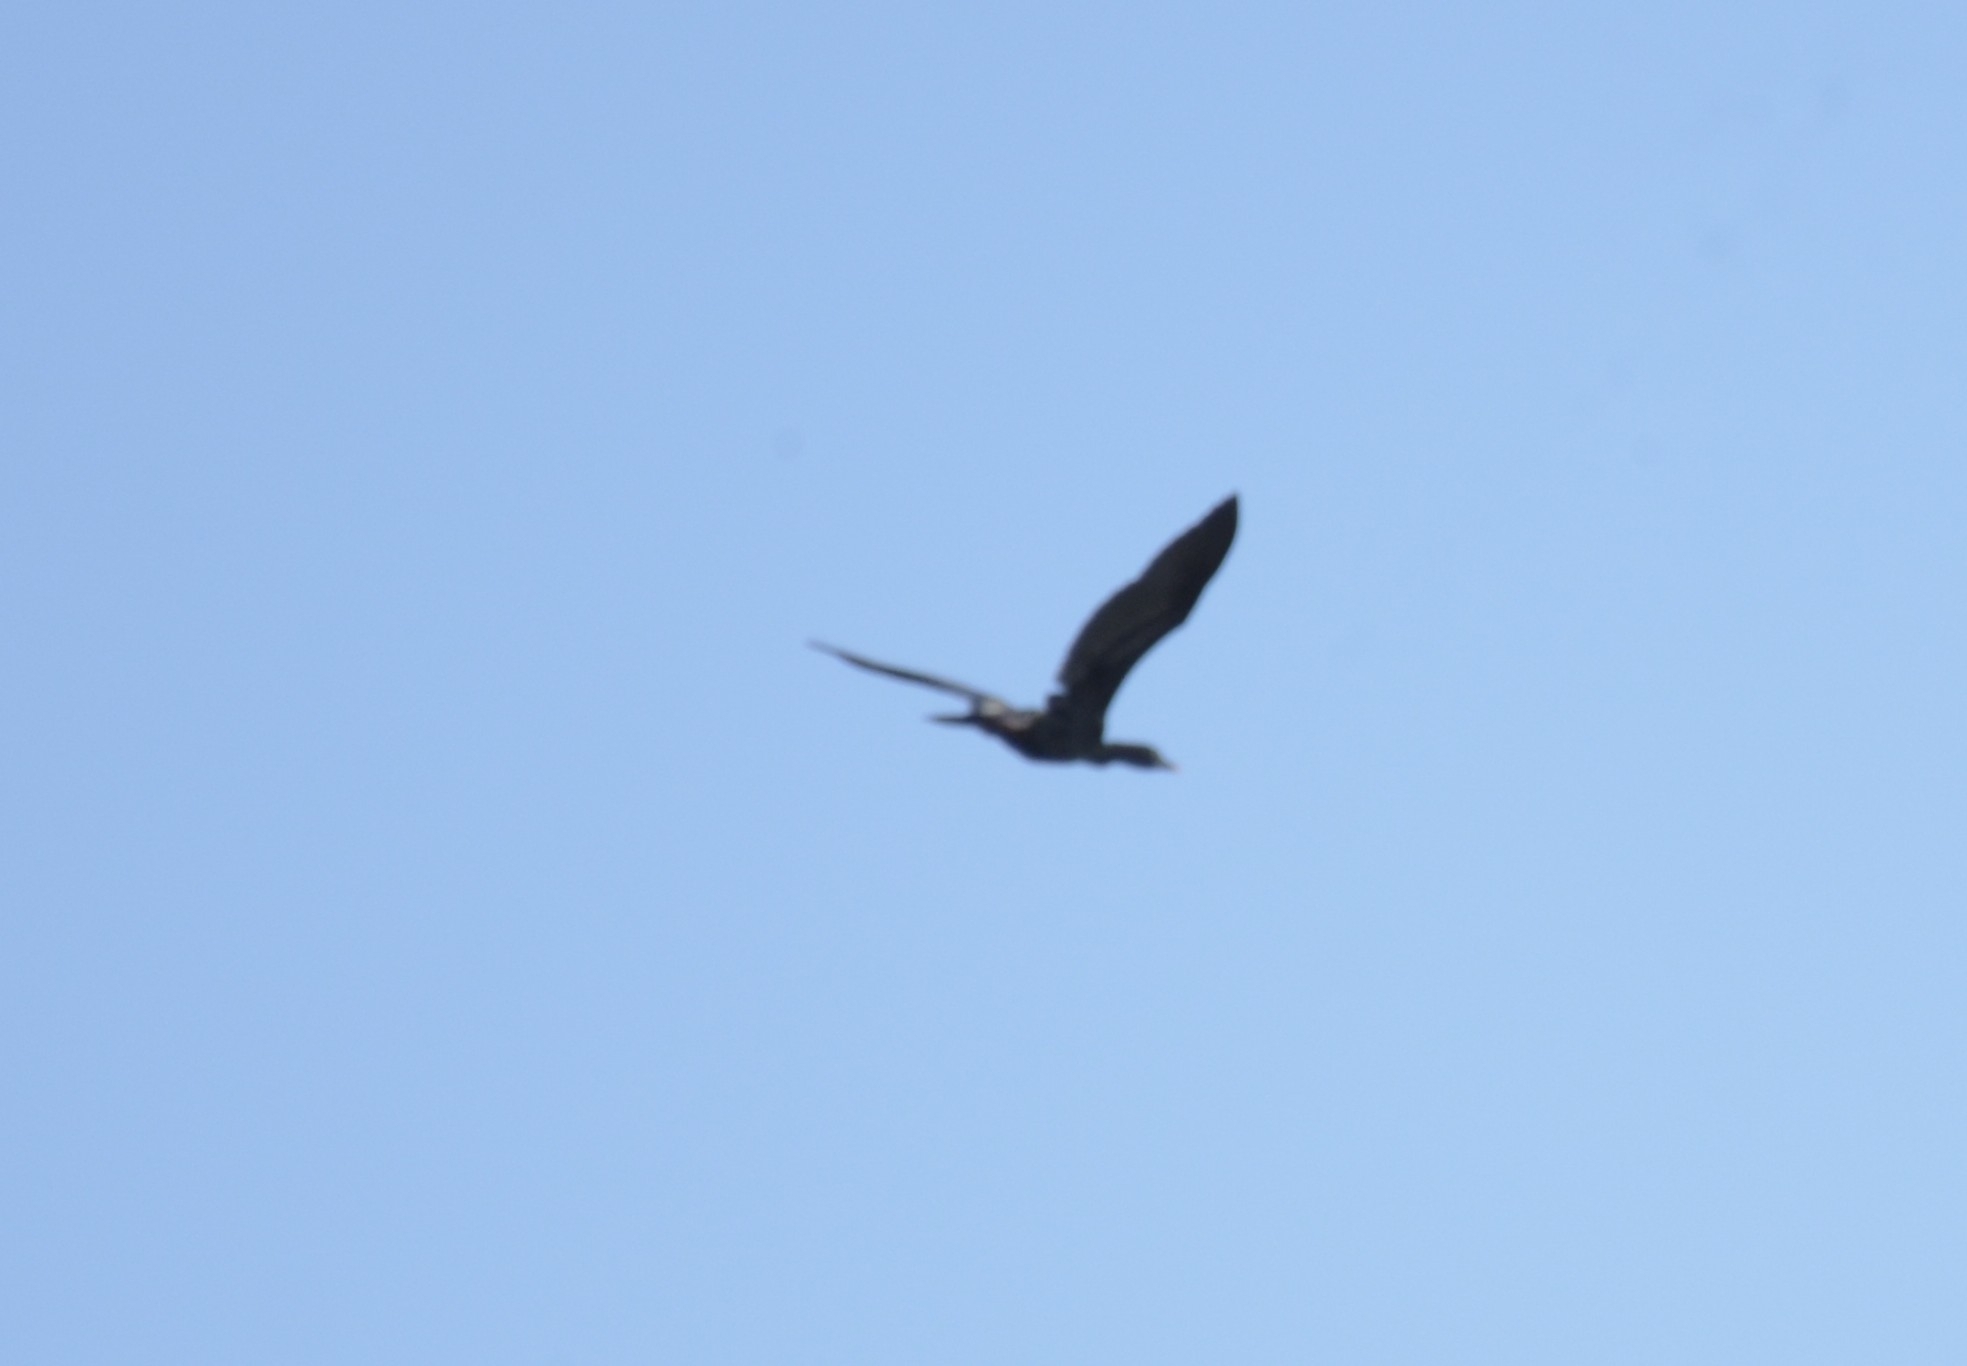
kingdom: Animalia
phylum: Chordata
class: Aves
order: Suliformes
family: Phalacrocoracidae
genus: Phalacrocorax
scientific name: Phalacrocorax fuscicollis
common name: Indian cormorant
